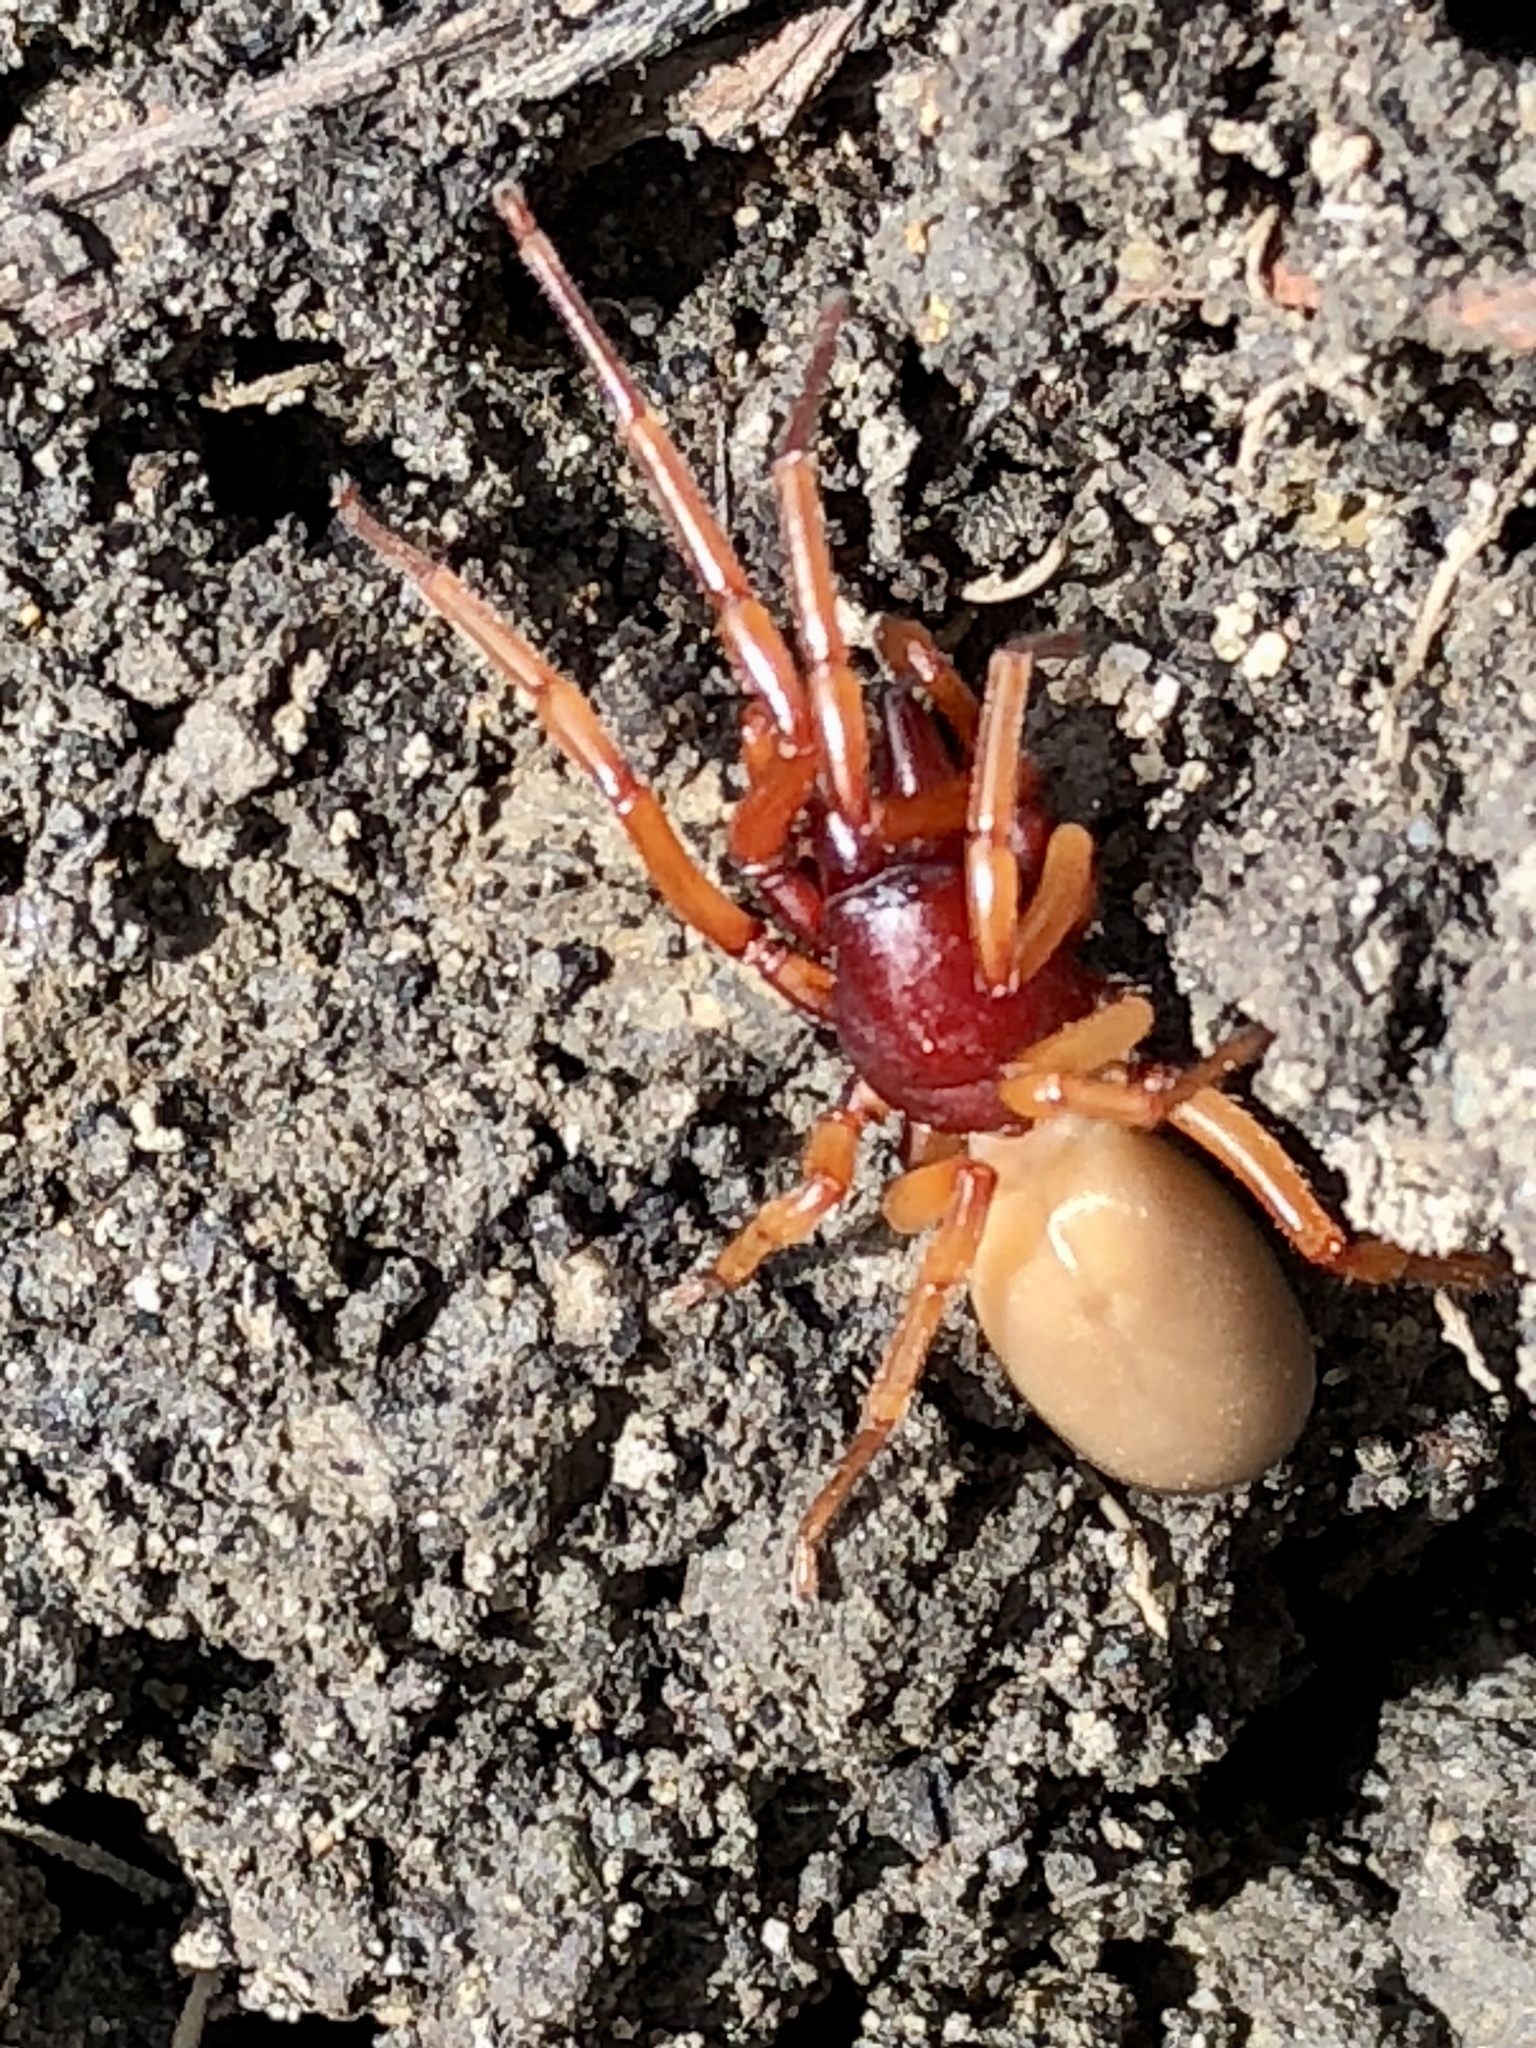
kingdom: Animalia
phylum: Arthropoda
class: Arachnida
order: Araneae
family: Dysderidae
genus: Dysdera
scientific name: Dysdera crocata
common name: Woodlouse spider
